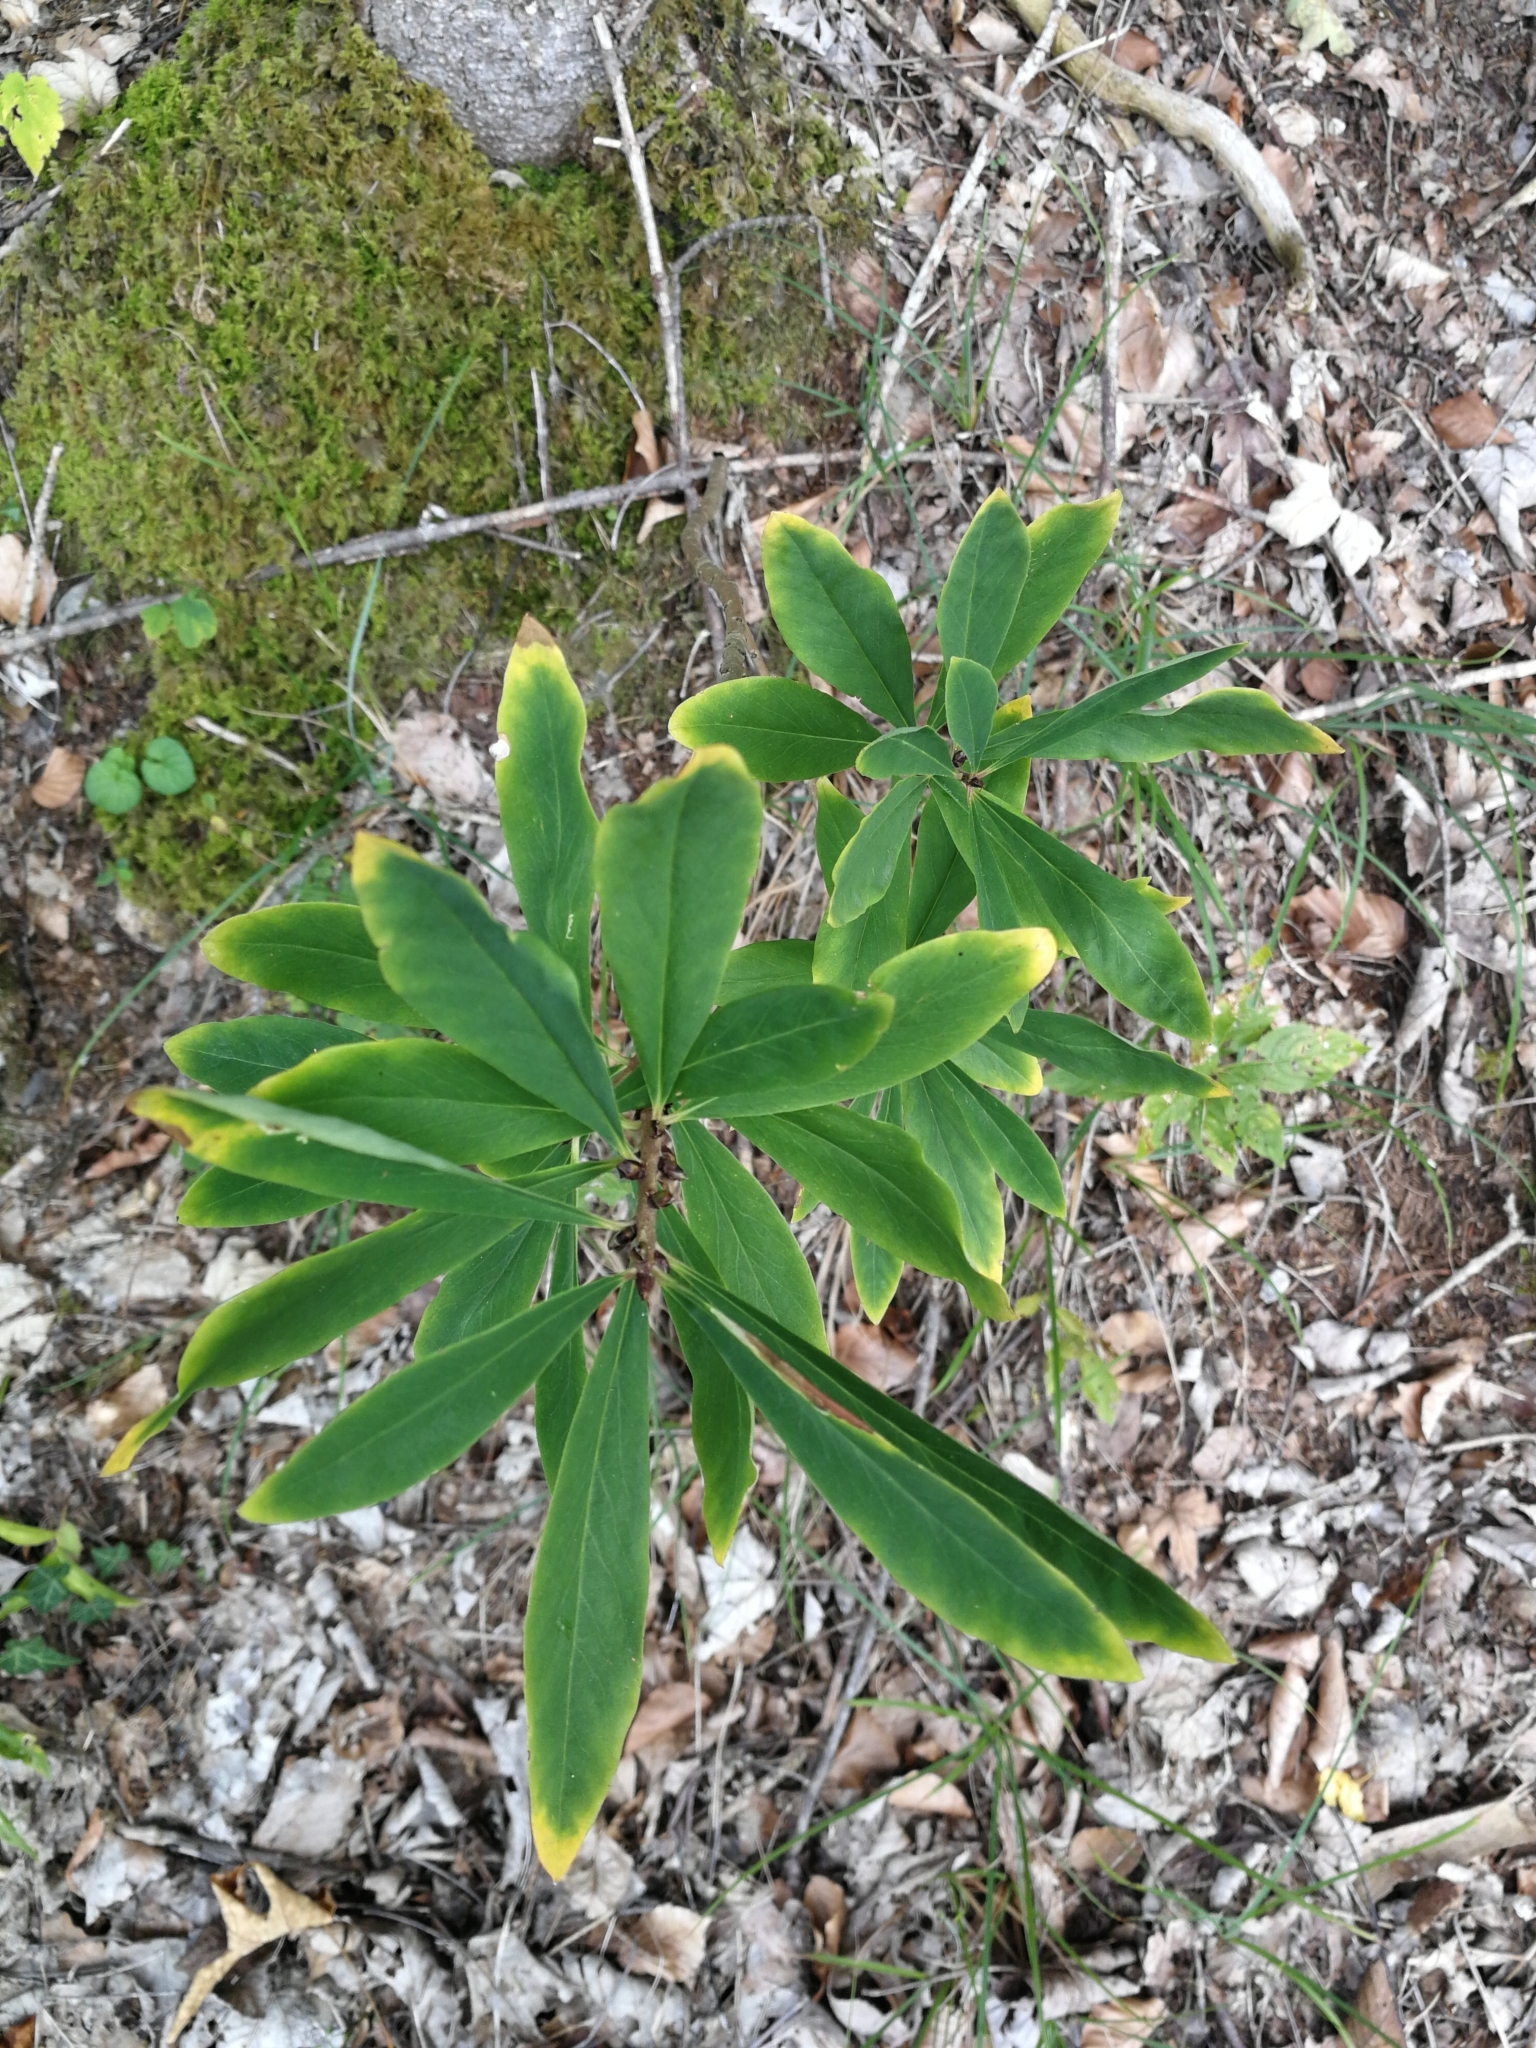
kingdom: Plantae
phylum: Tracheophyta
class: Magnoliopsida
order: Malvales
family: Thymelaeaceae
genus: Daphne
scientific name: Daphne mezereum
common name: Mezereon
